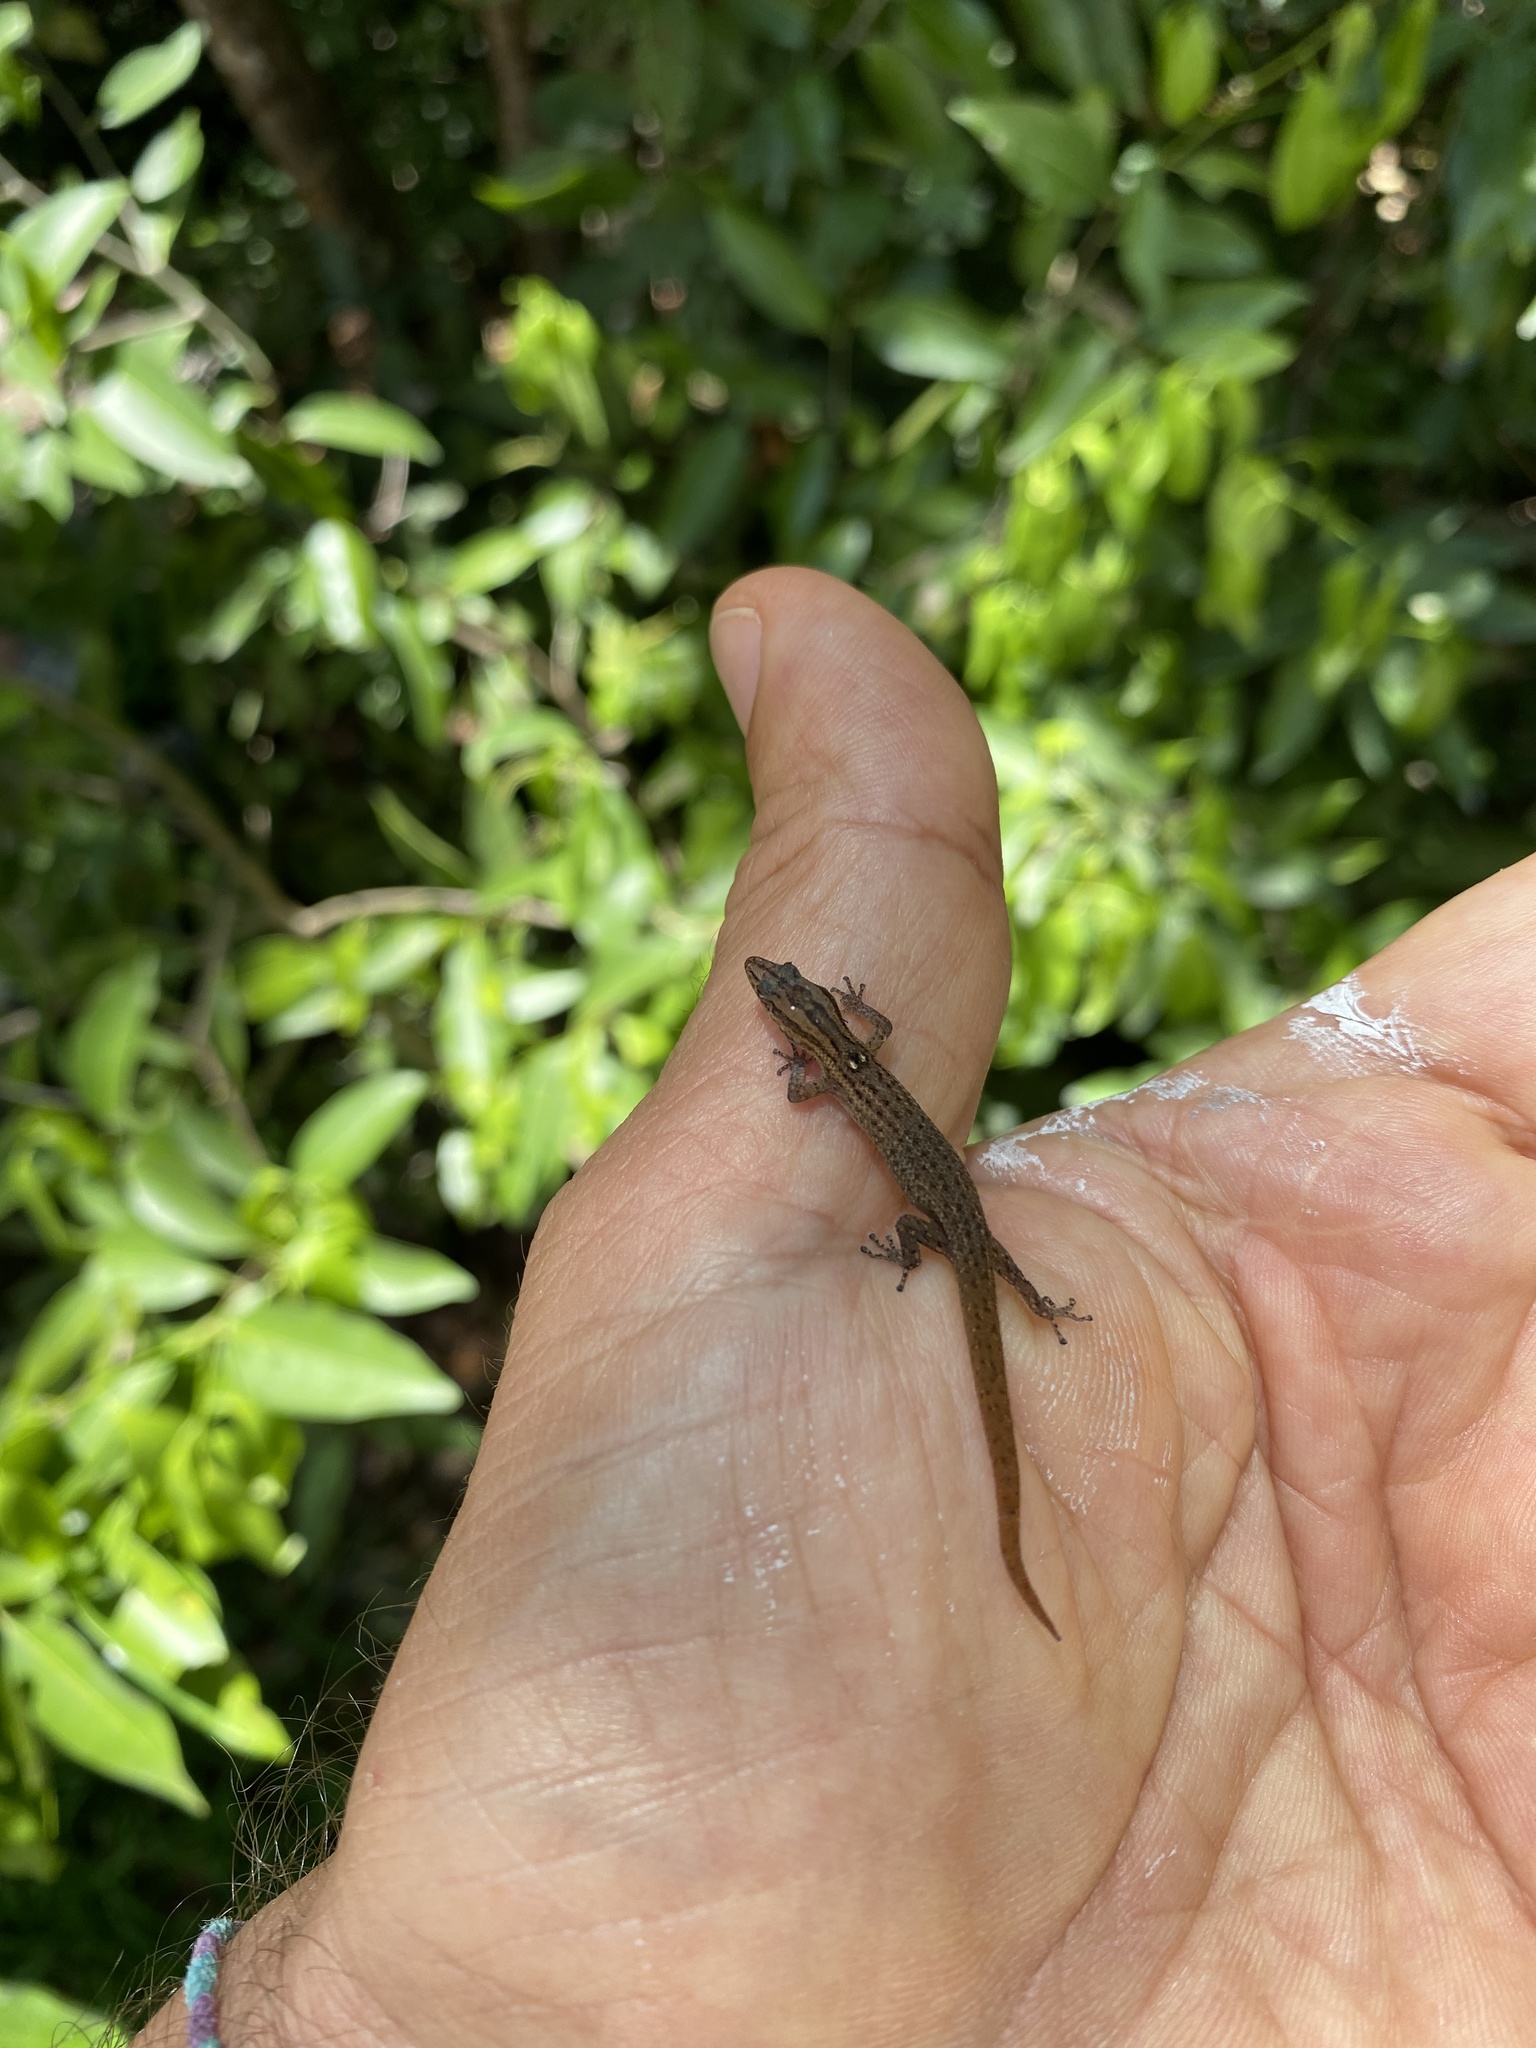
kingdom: Animalia
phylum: Chordata
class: Squamata
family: Sphaerodactylidae
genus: Sphaerodactylus
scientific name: Sphaerodactylus notatus
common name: Brown-speckled sphaero
